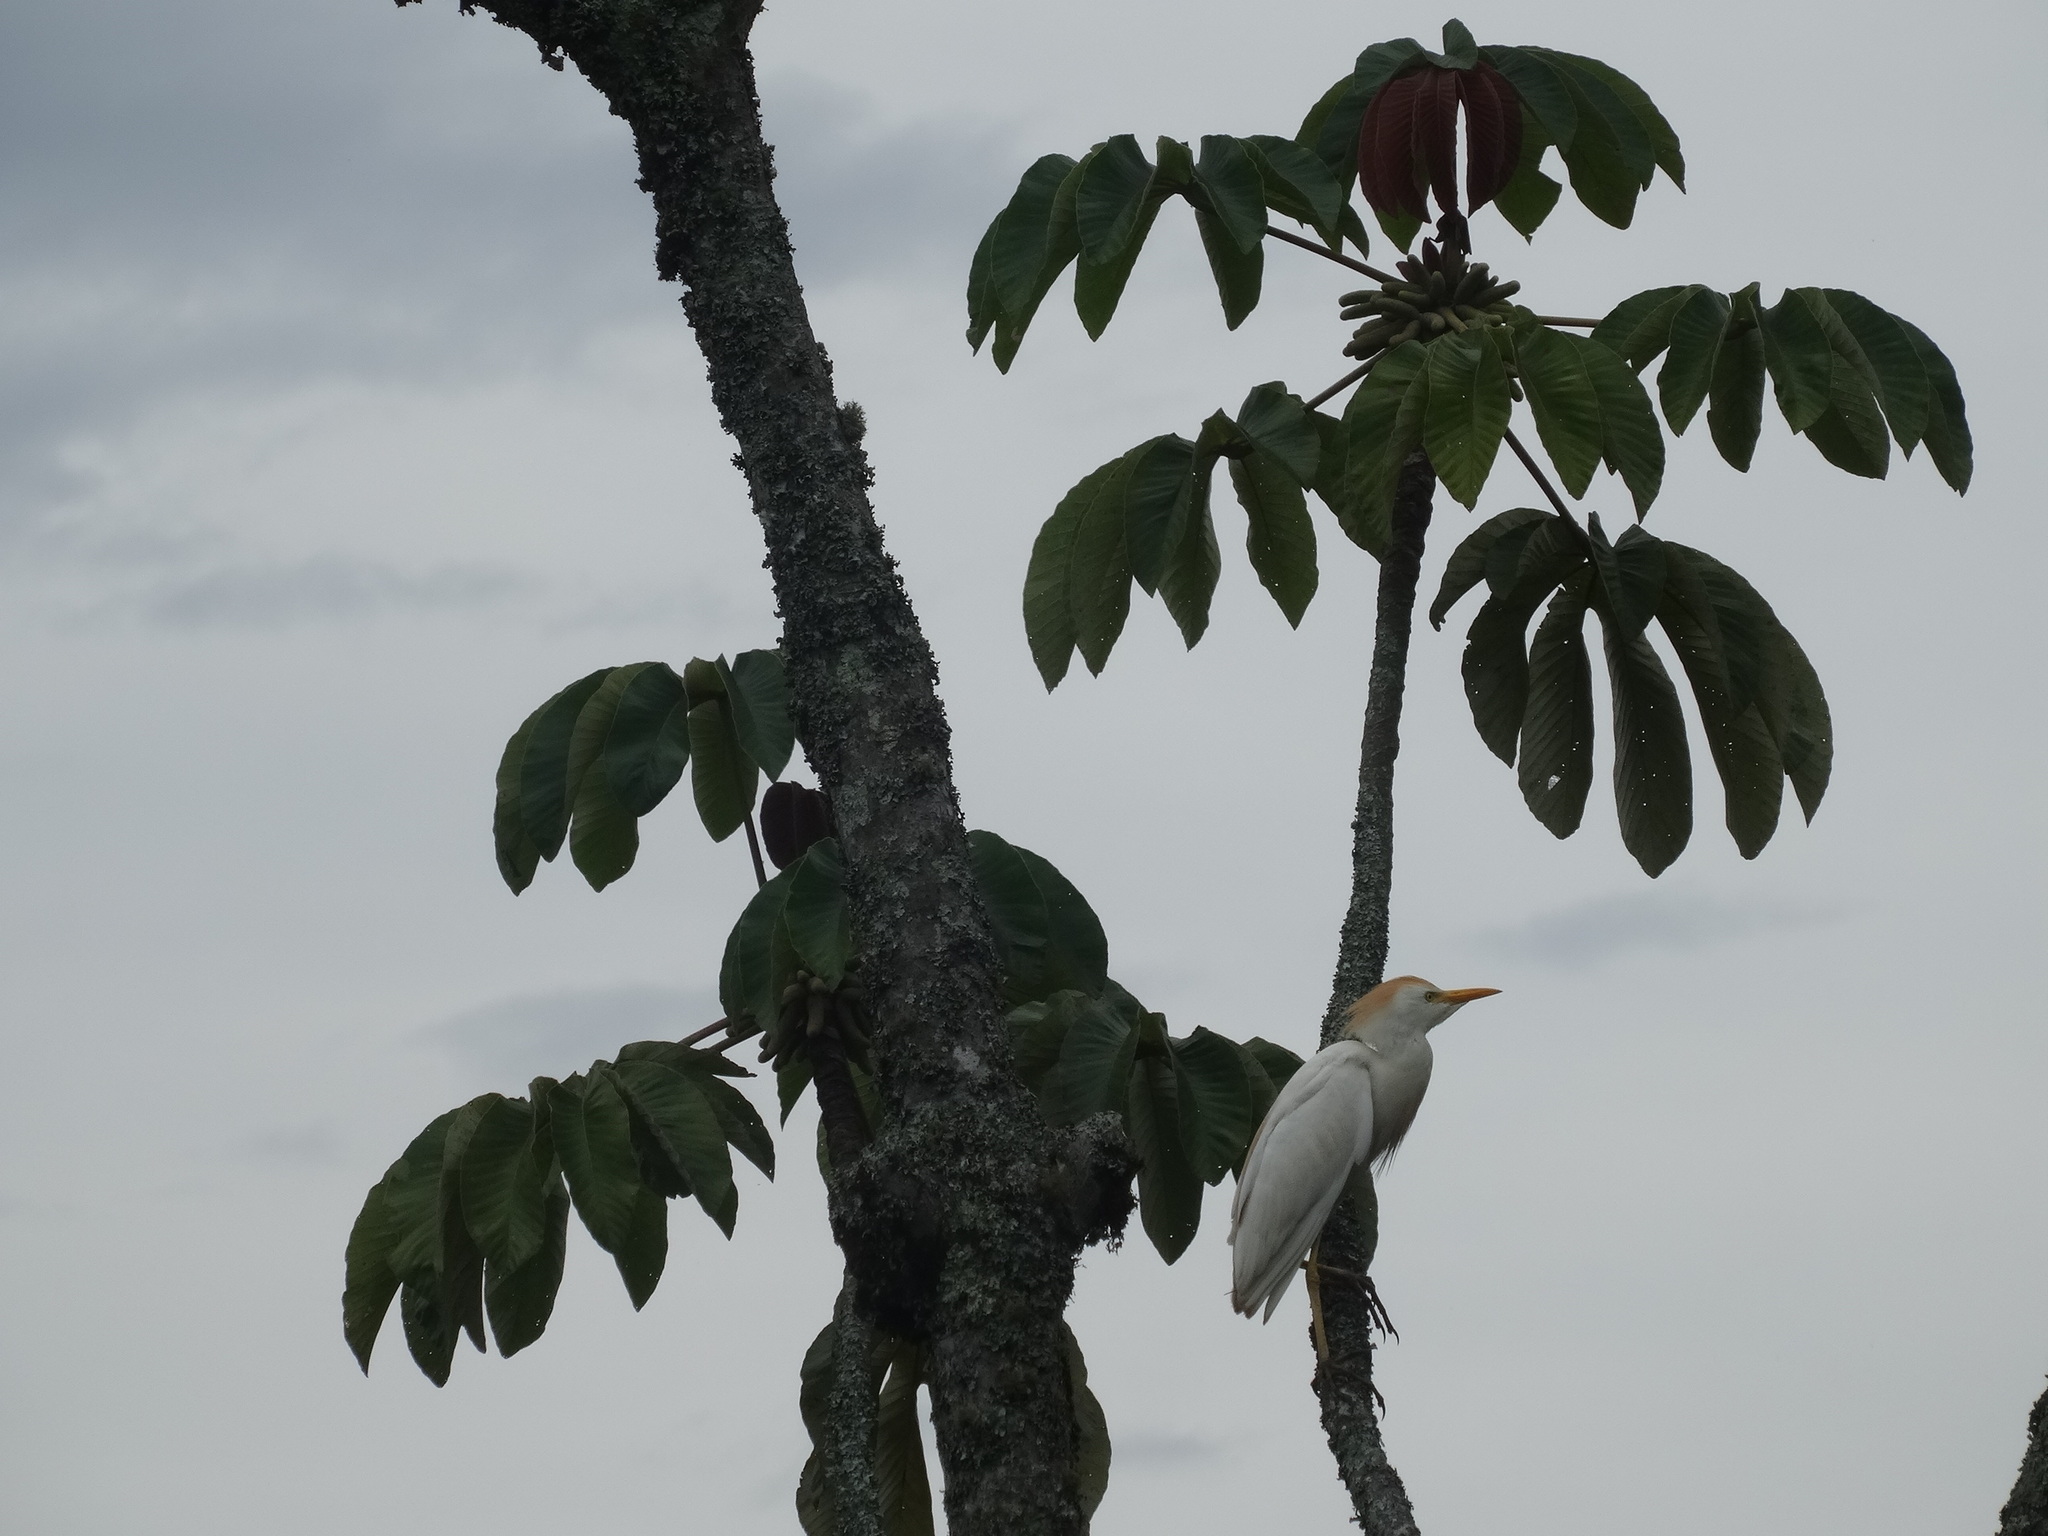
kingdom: Animalia
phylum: Chordata
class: Aves
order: Pelecaniformes
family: Ardeidae
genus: Bubulcus
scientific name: Bubulcus ibis
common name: Cattle egret
